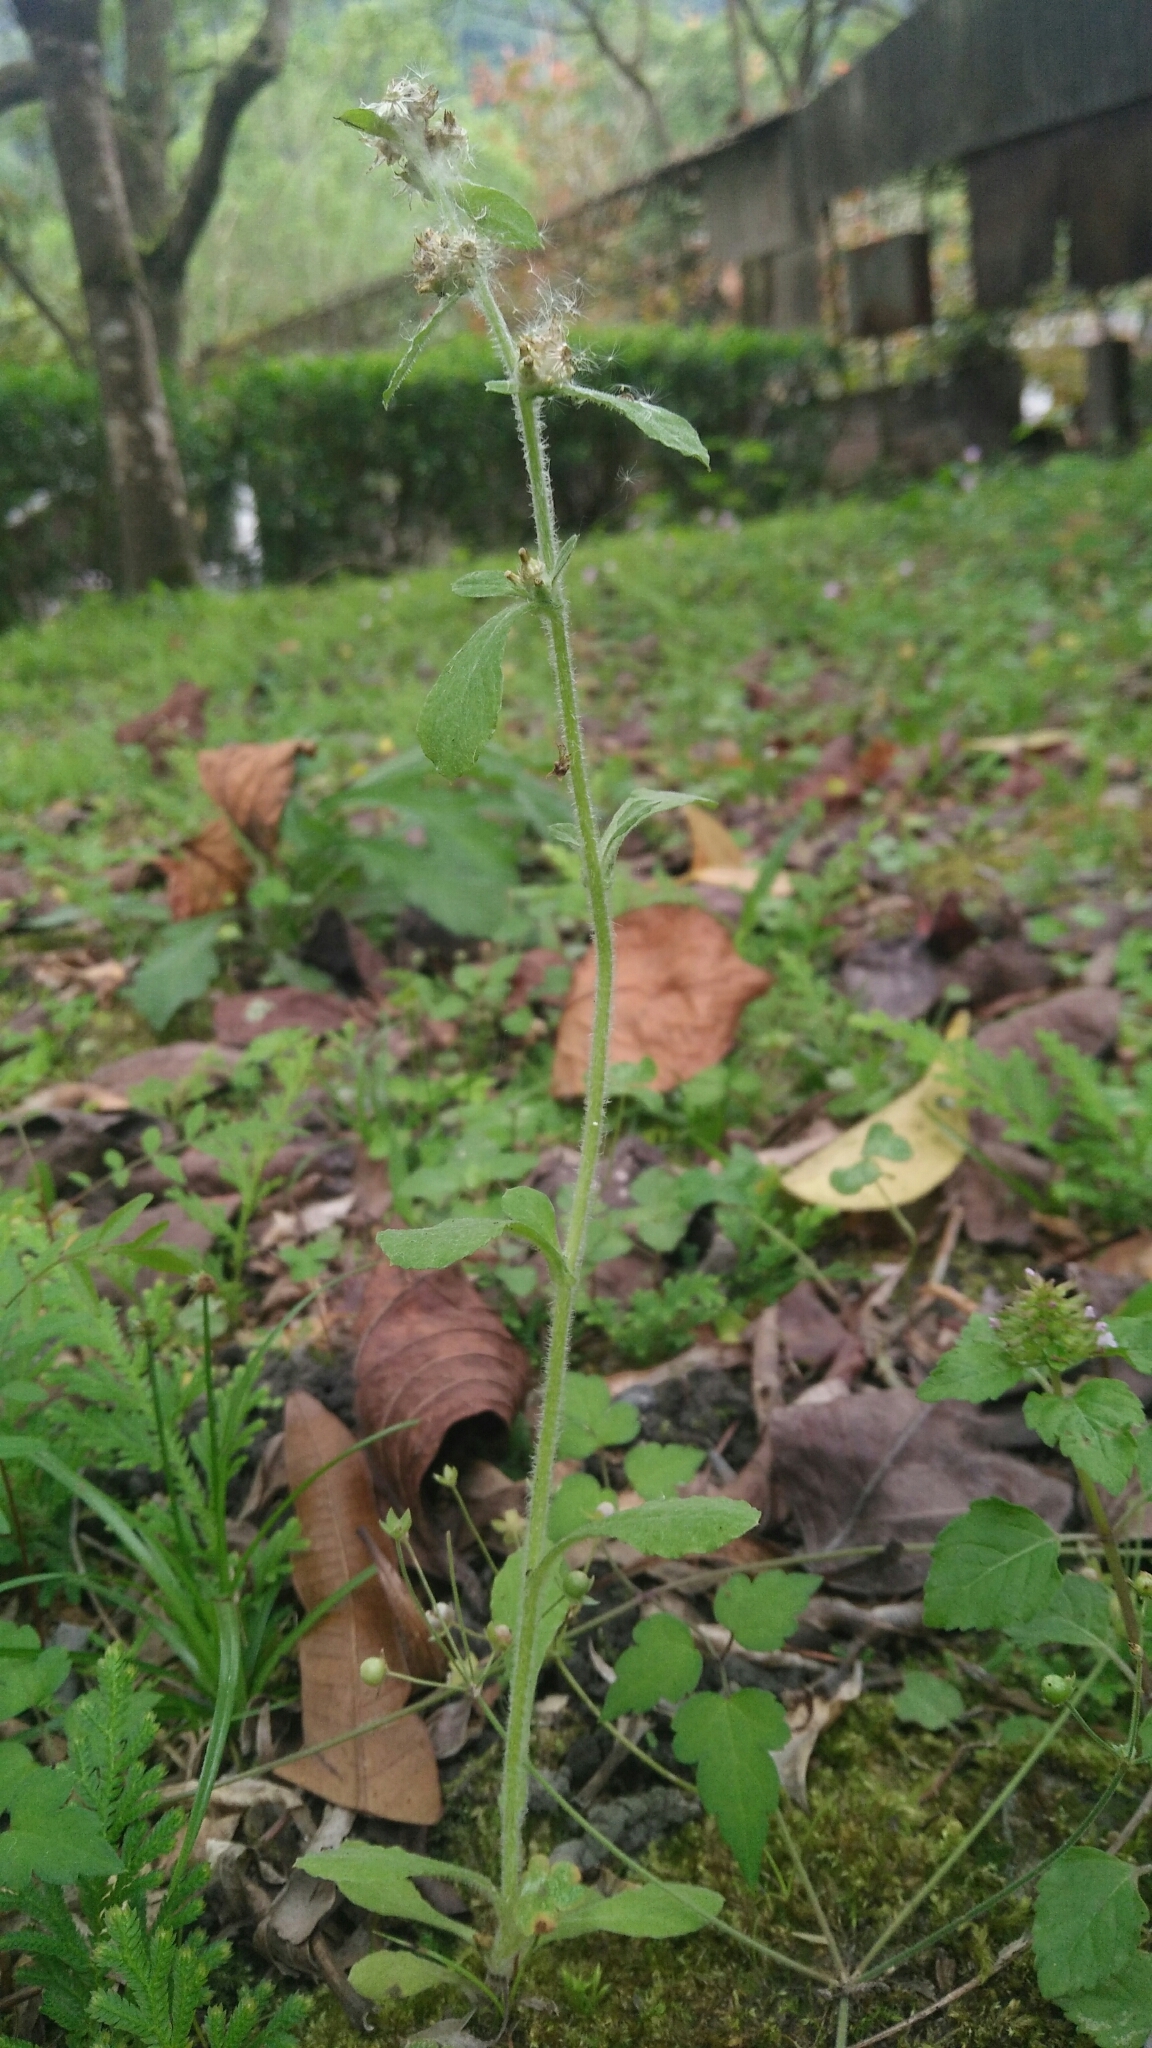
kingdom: Plantae
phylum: Tracheophyta
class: Magnoliopsida
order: Asterales
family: Asteraceae
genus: Gamochaeta
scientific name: Gamochaeta pensylvanica
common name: Pennsylvania everlasting
